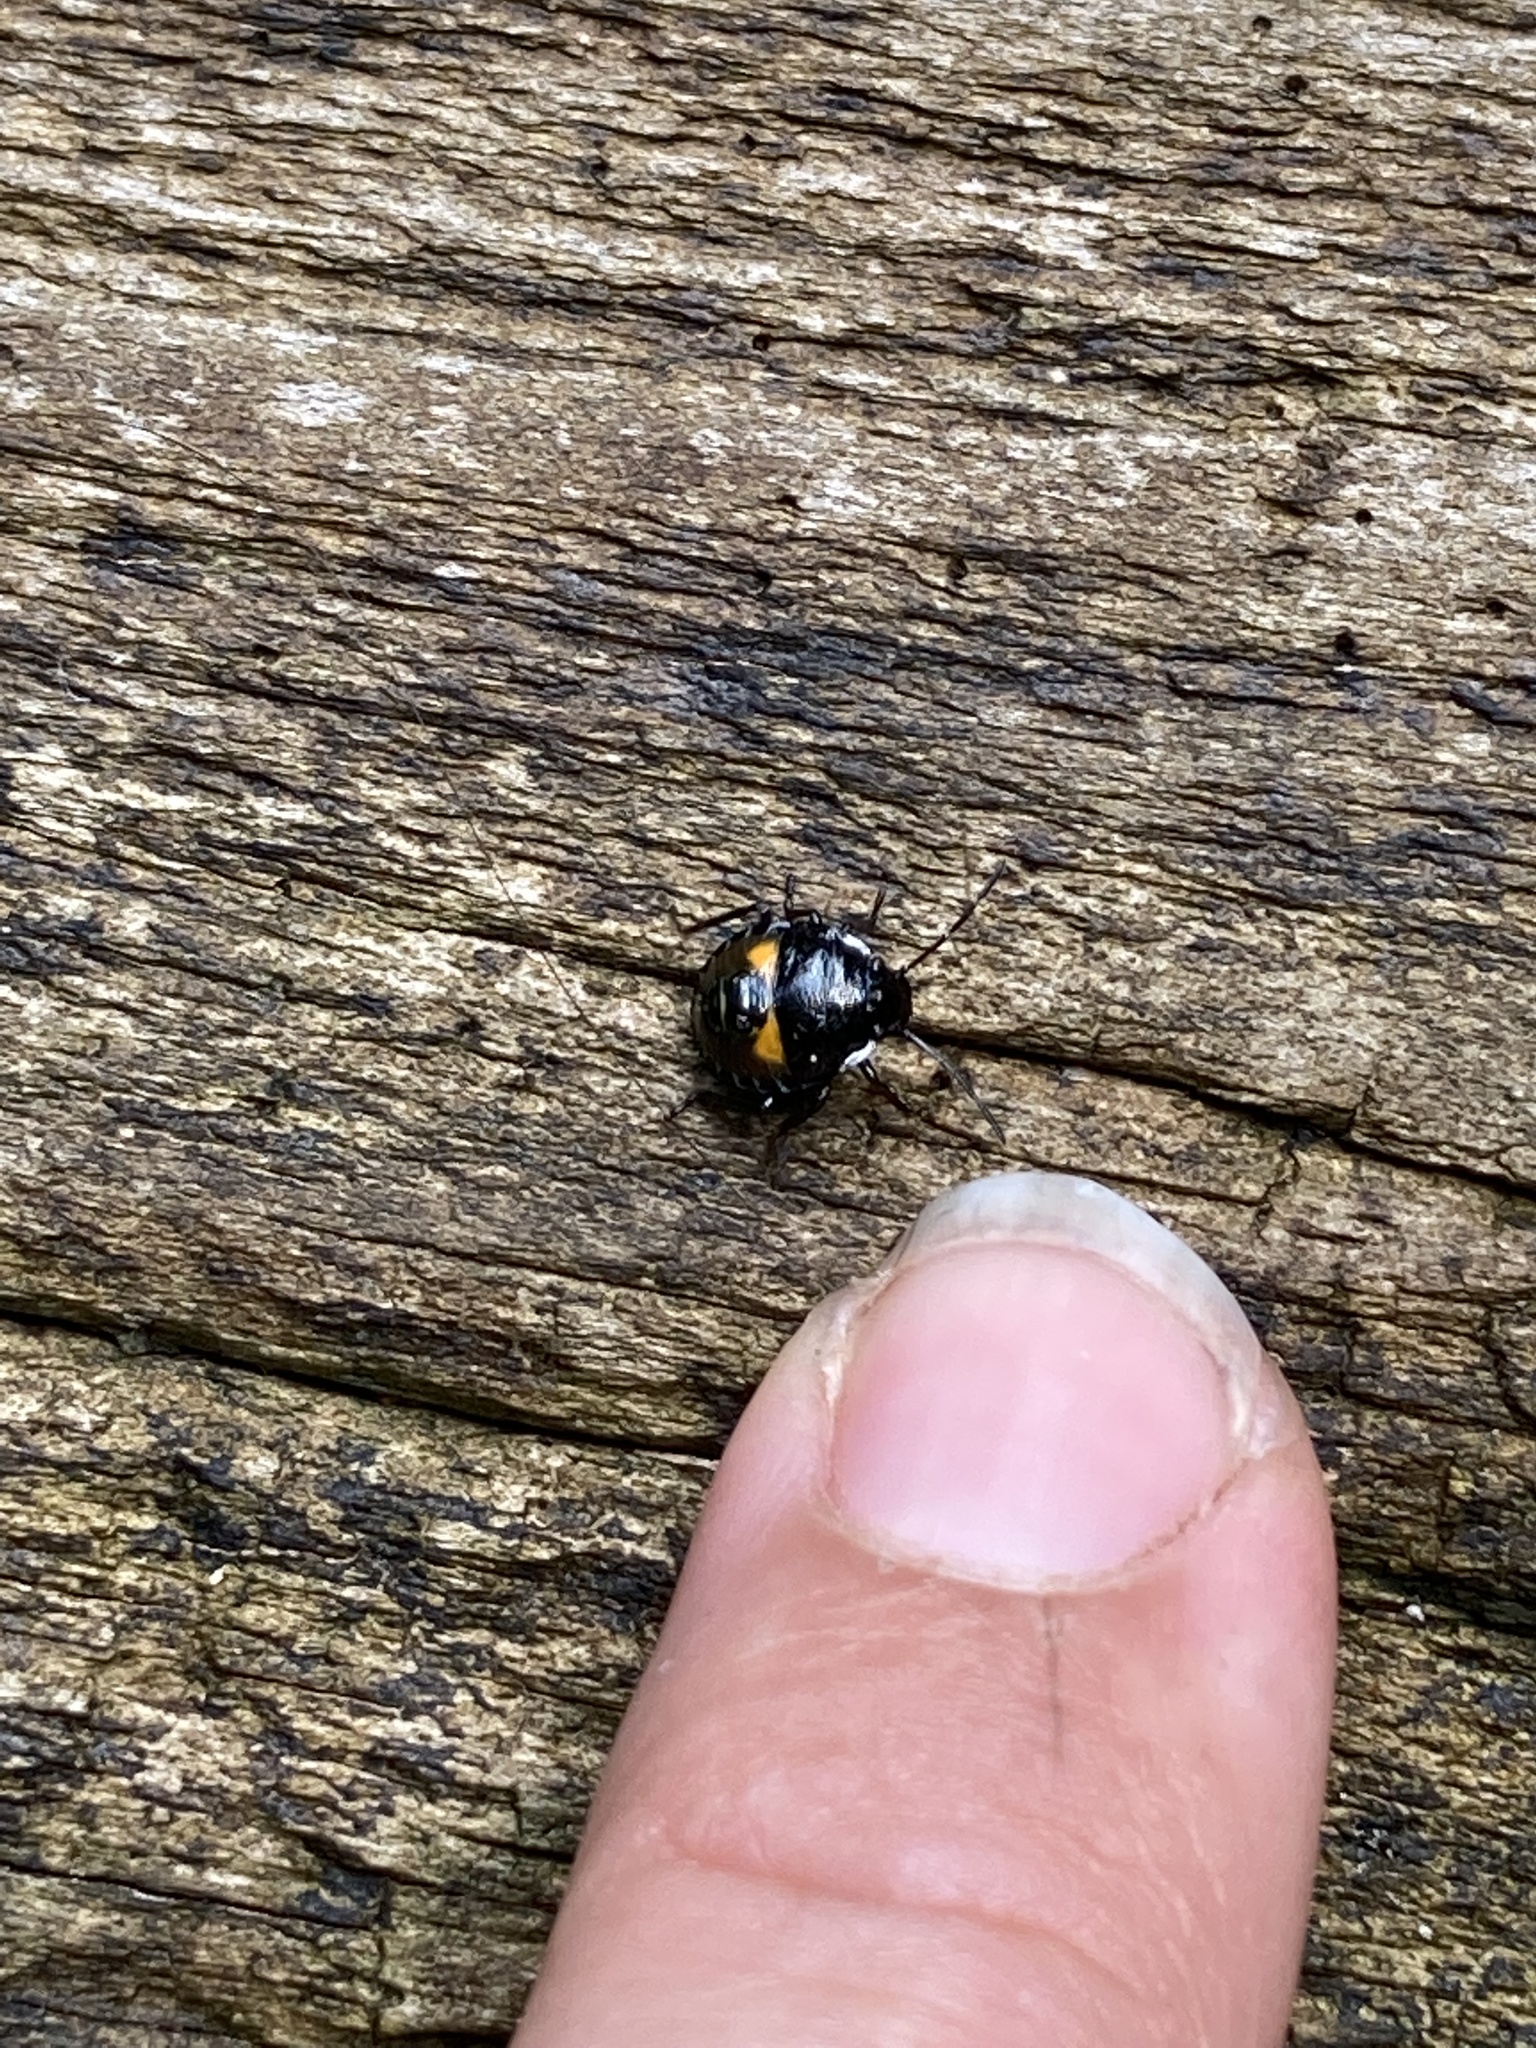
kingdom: Animalia
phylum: Arthropoda
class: Insecta
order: Hemiptera
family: Pentatomidae
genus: Glaucias
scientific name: Glaucias amyota
